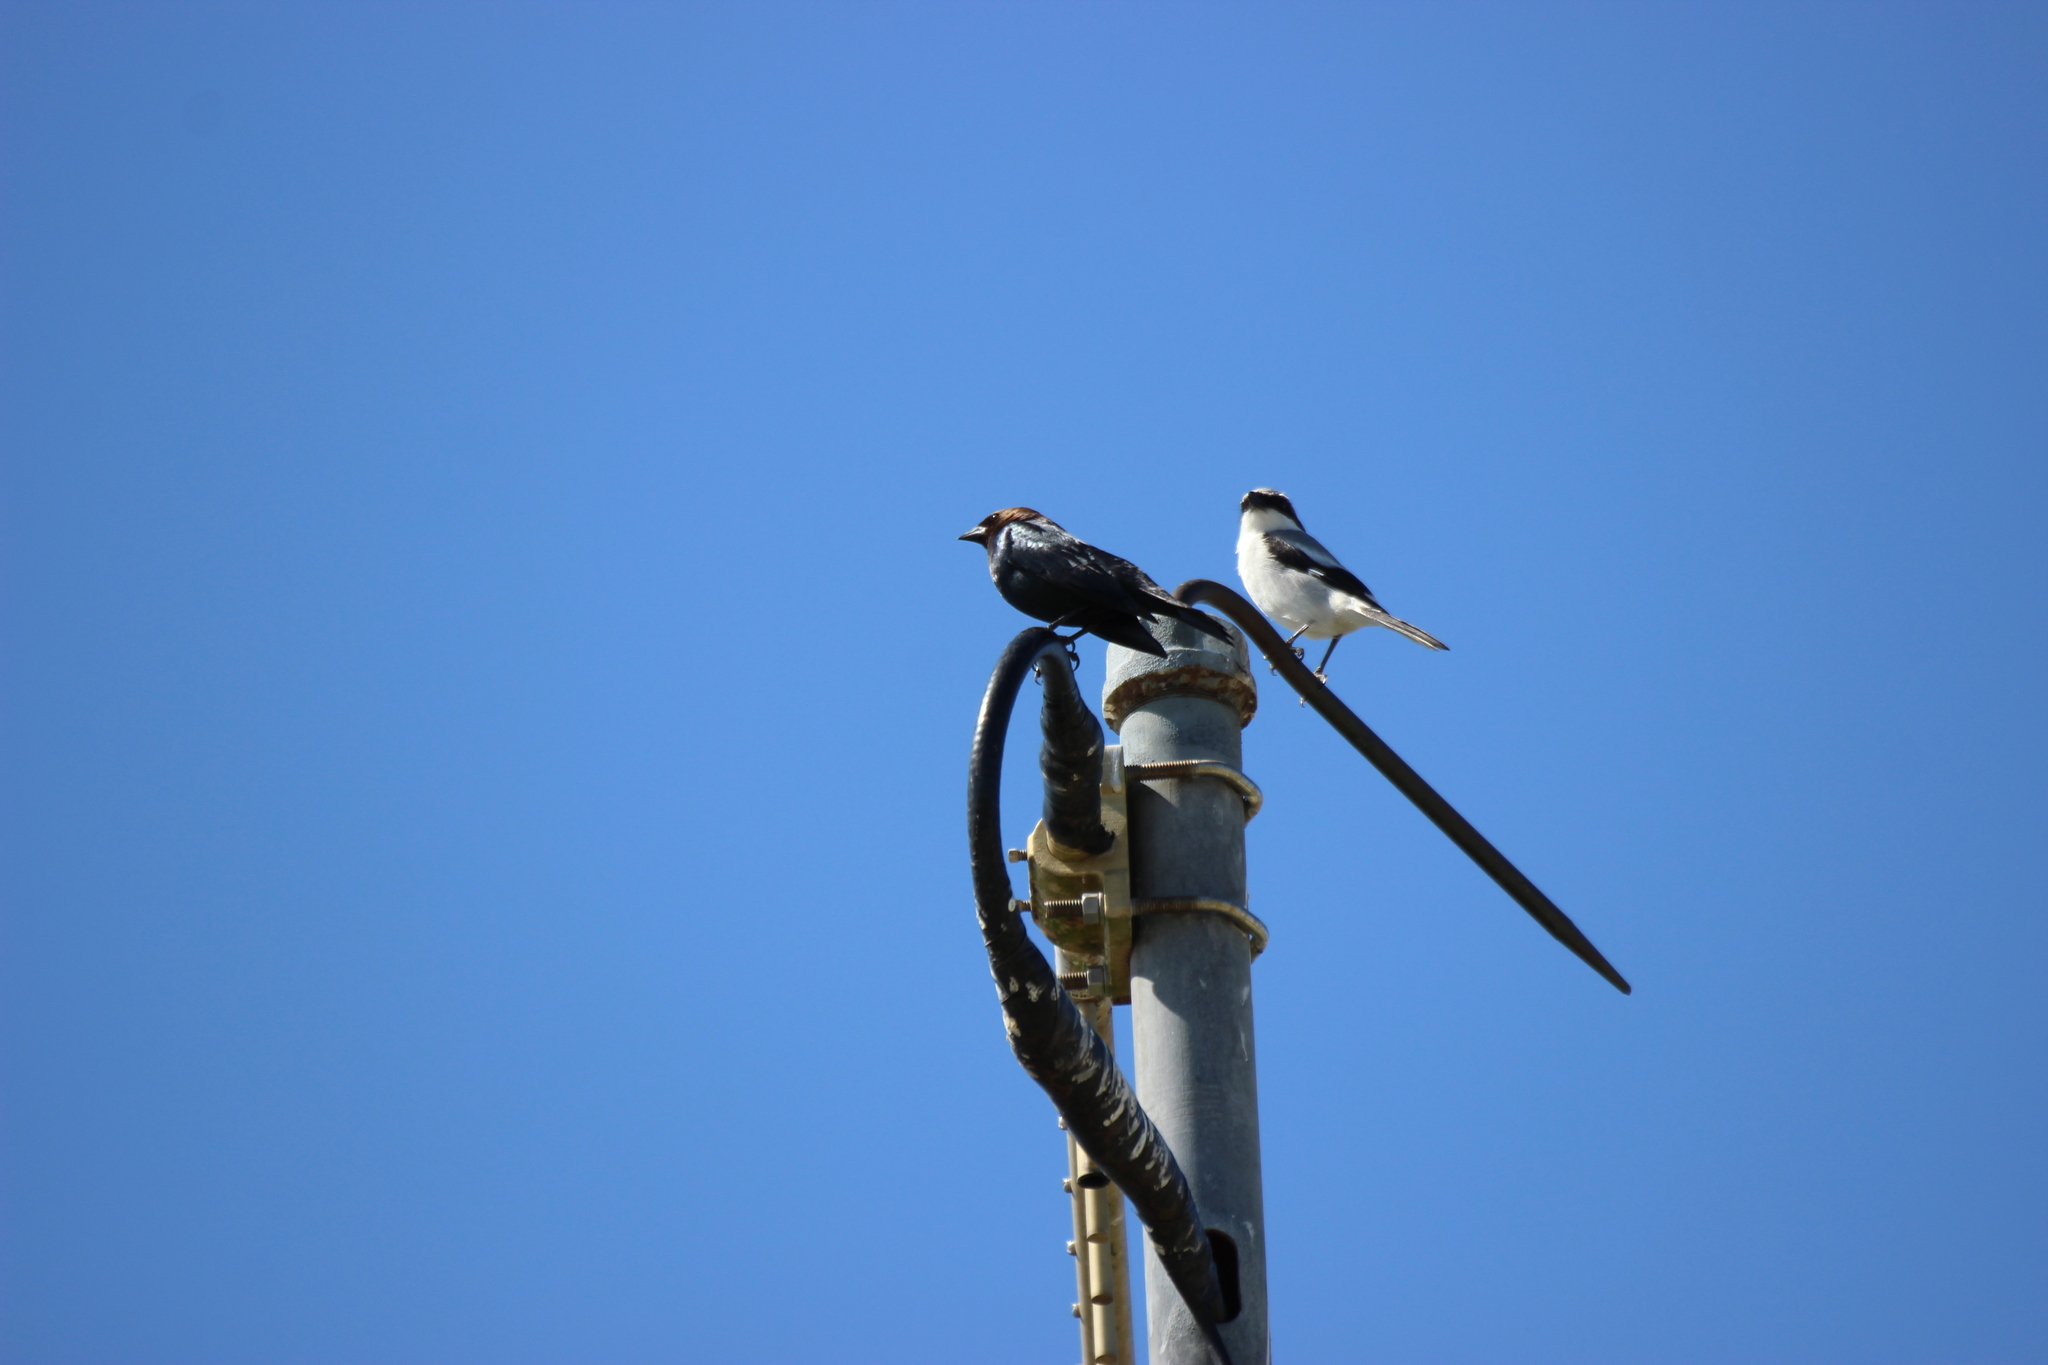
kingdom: Animalia
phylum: Chordata
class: Aves
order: Passeriformes
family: Laniidae
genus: Lanius
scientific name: Lanius ludovicianus
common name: Loggerhead shrike
